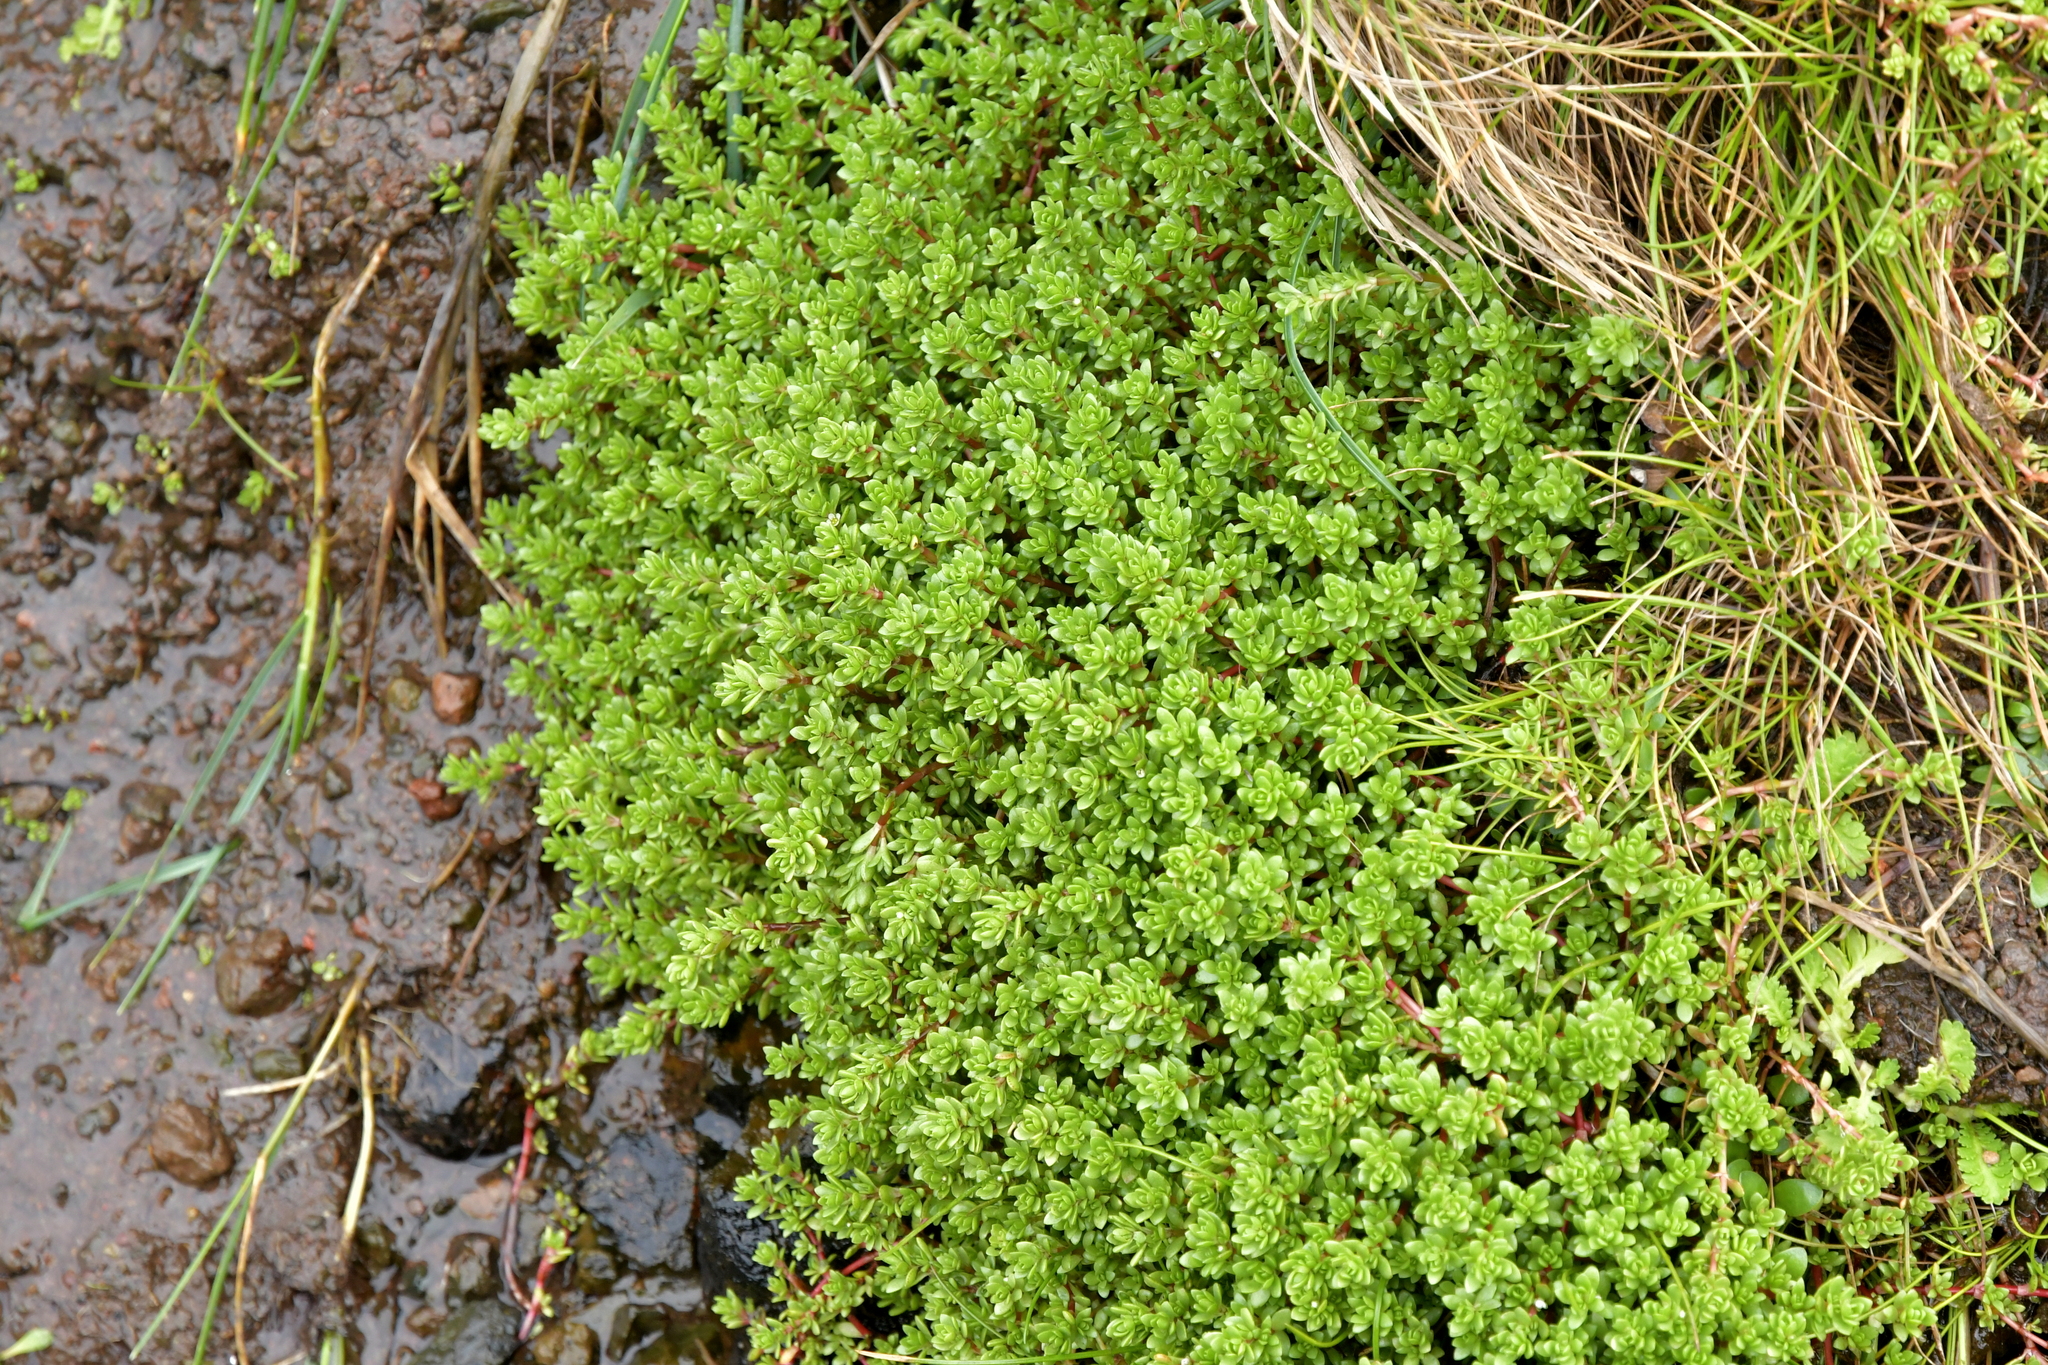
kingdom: Plantae
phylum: Tracheophyta
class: Magnoliopsida
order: Saxifragales
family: Crassulaceae
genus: Crassula
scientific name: Crassula moschata
